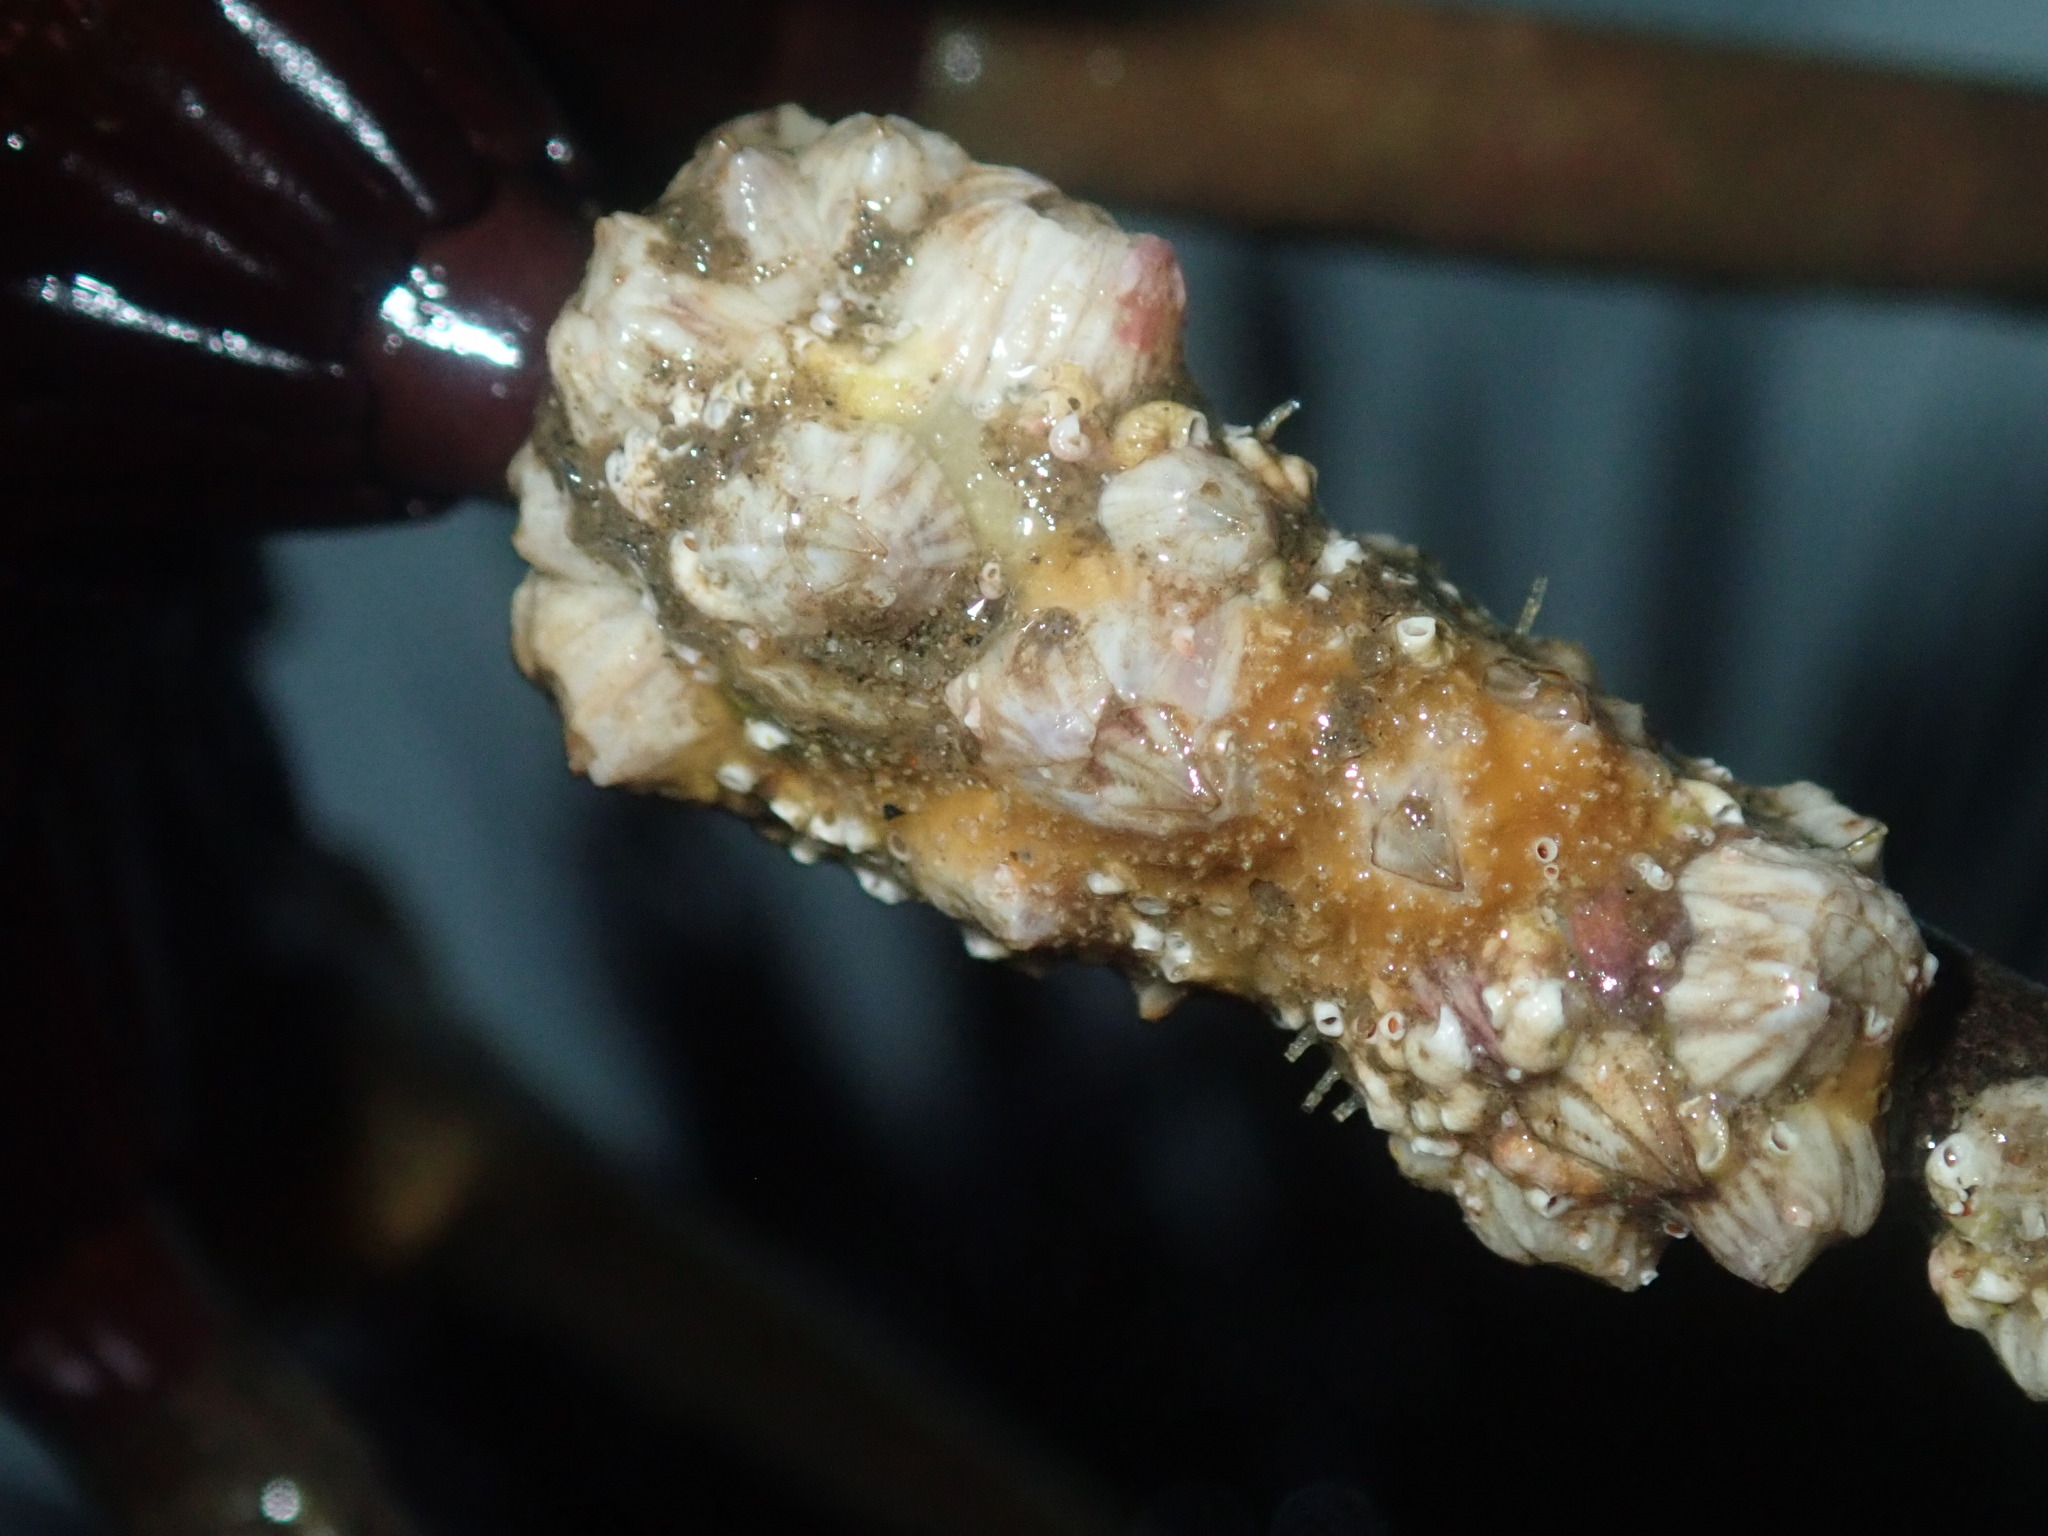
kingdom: Animalia
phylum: Arthropoda
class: Maxillopoda
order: Sessilia
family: Balanidae
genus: Balanus
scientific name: Balanus trigonus
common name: Triangle barnacle
